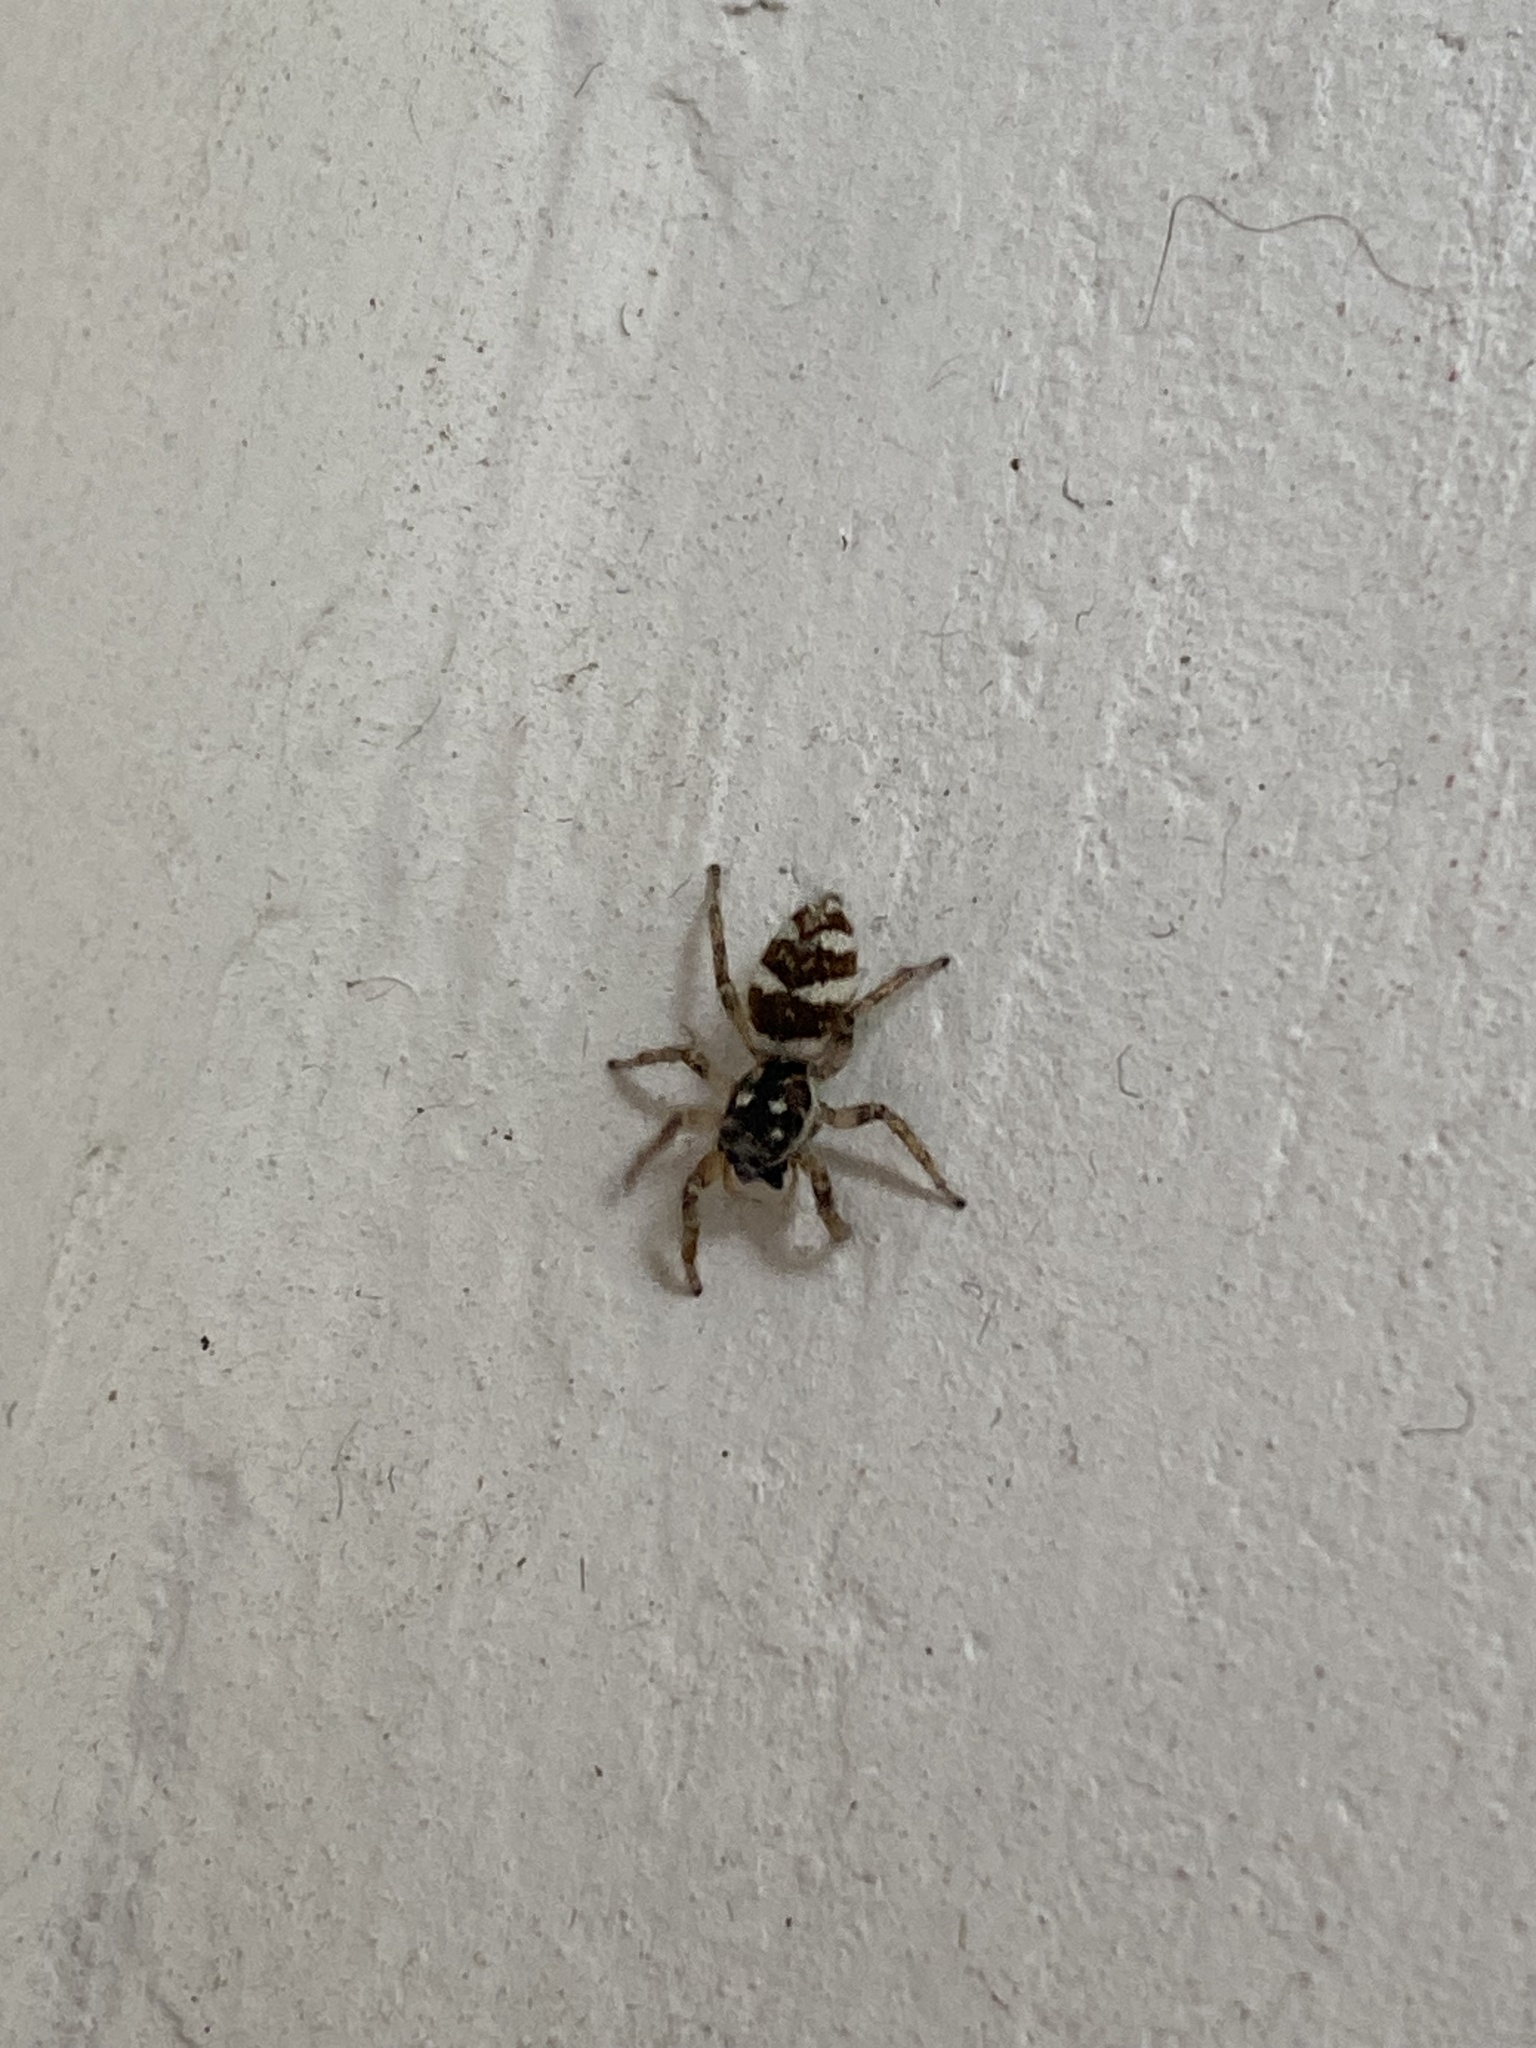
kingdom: Animalia
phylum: Arthropoda
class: Arachnida
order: Araneae
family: Salticidae
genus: Salticus
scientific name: Salticus scenicus
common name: Zebra jumper
